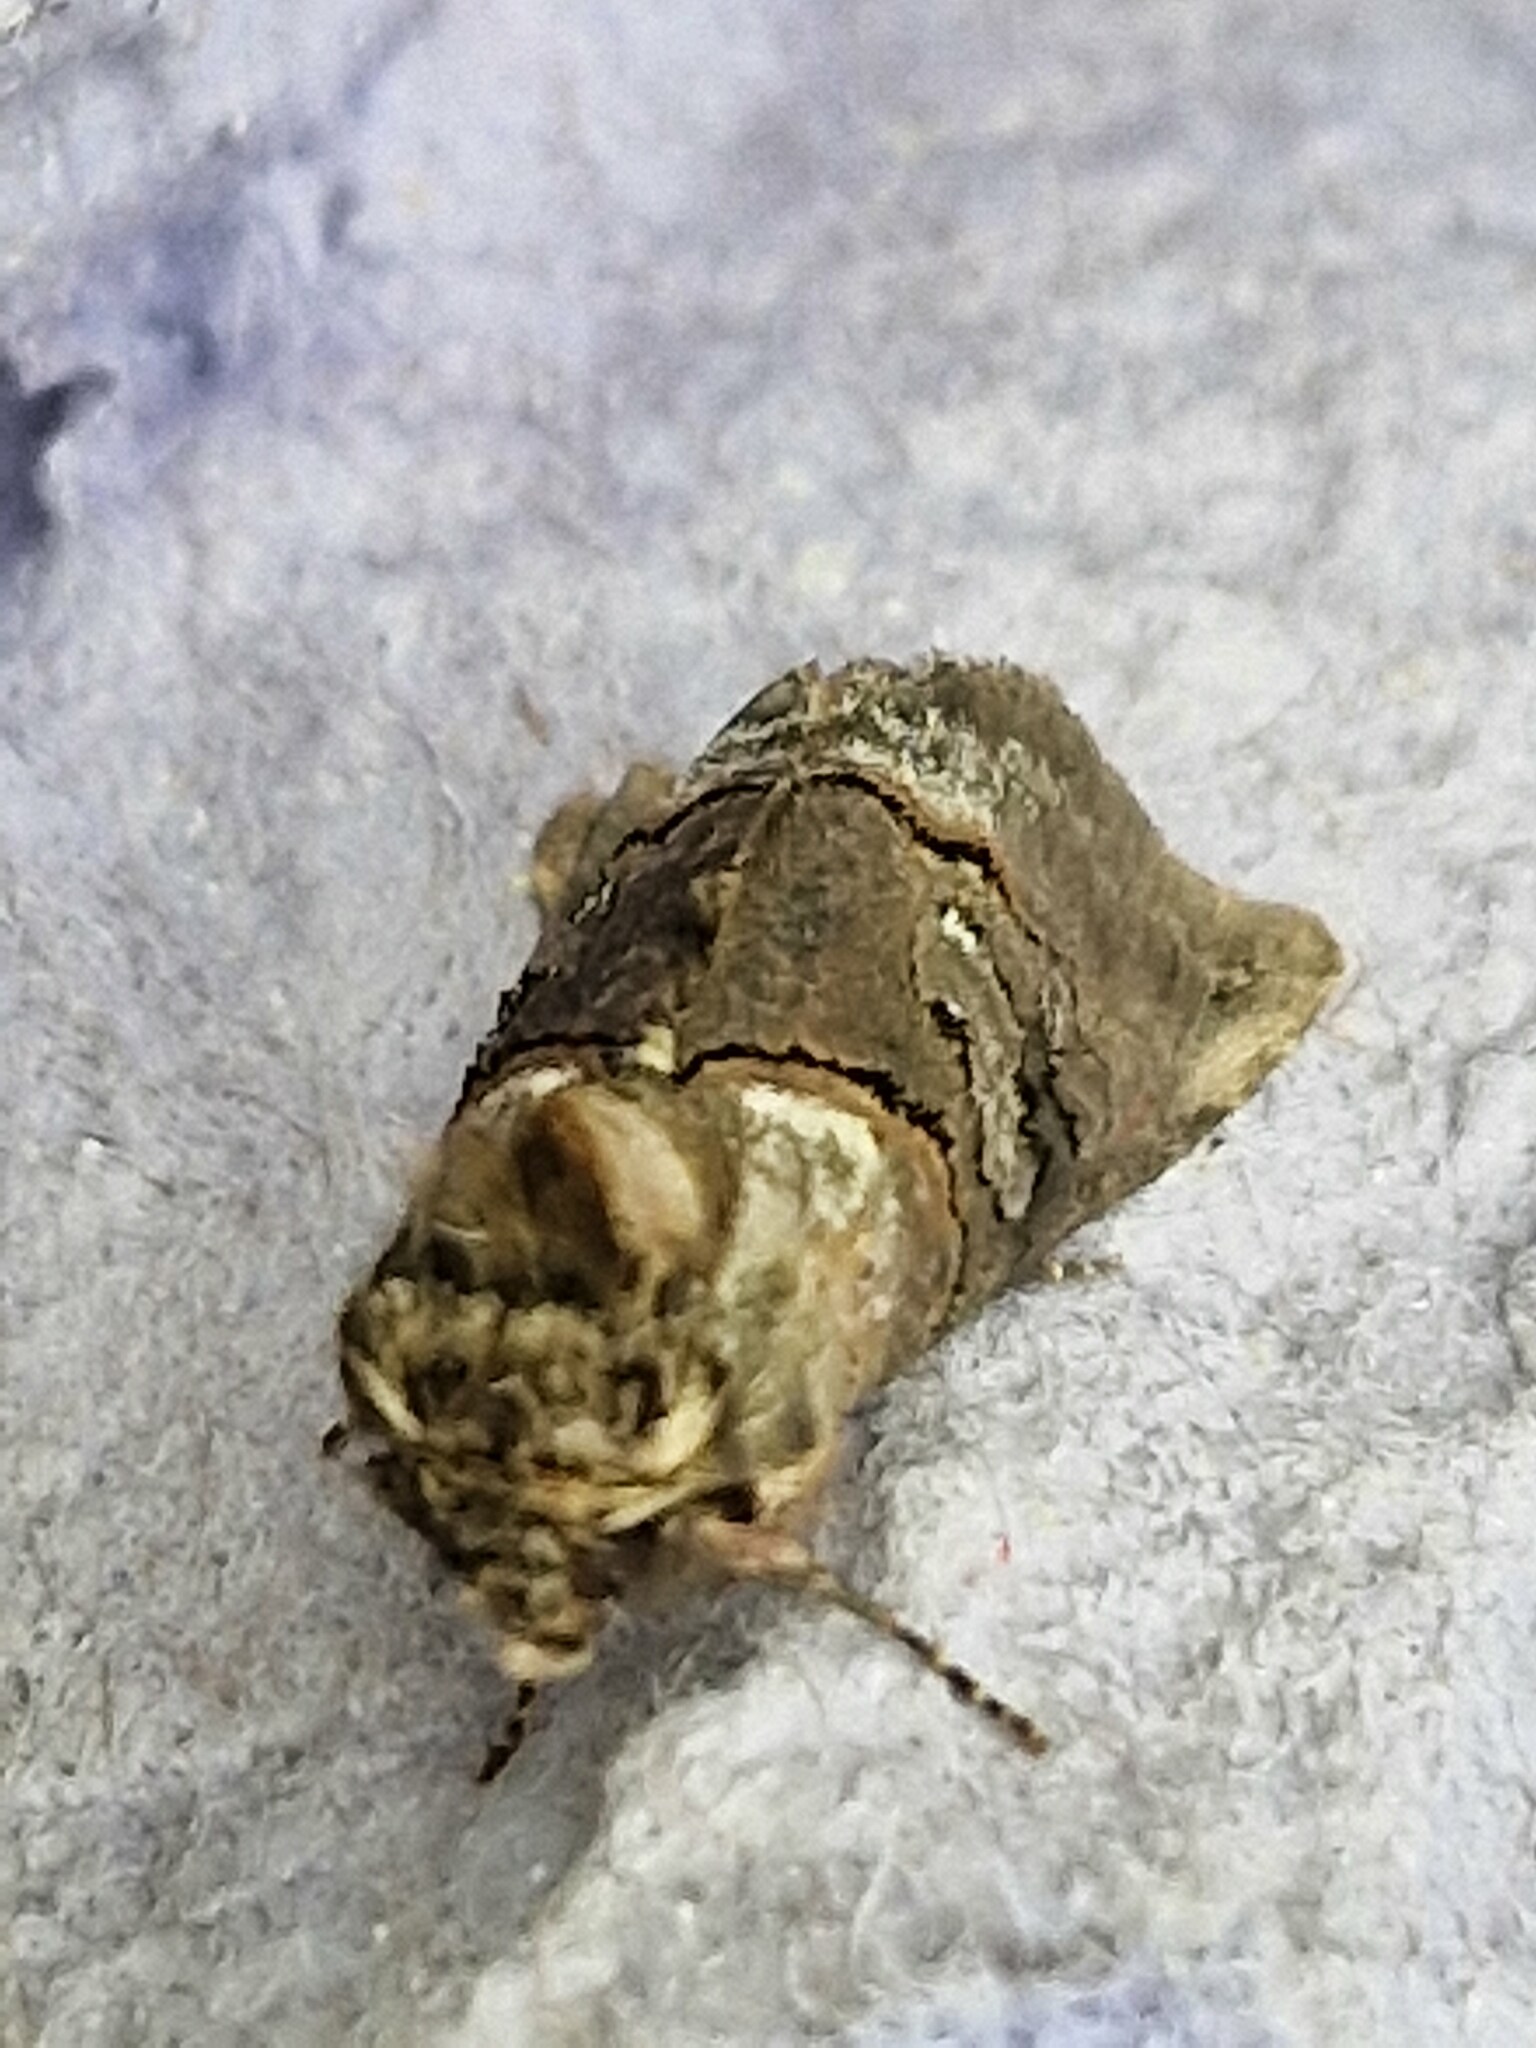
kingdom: Animalia
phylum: Arthropoda
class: Insecta
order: Lepidoptera
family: Noctuidae
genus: Abrostola
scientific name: Abrostola tripartita
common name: Spectacle
